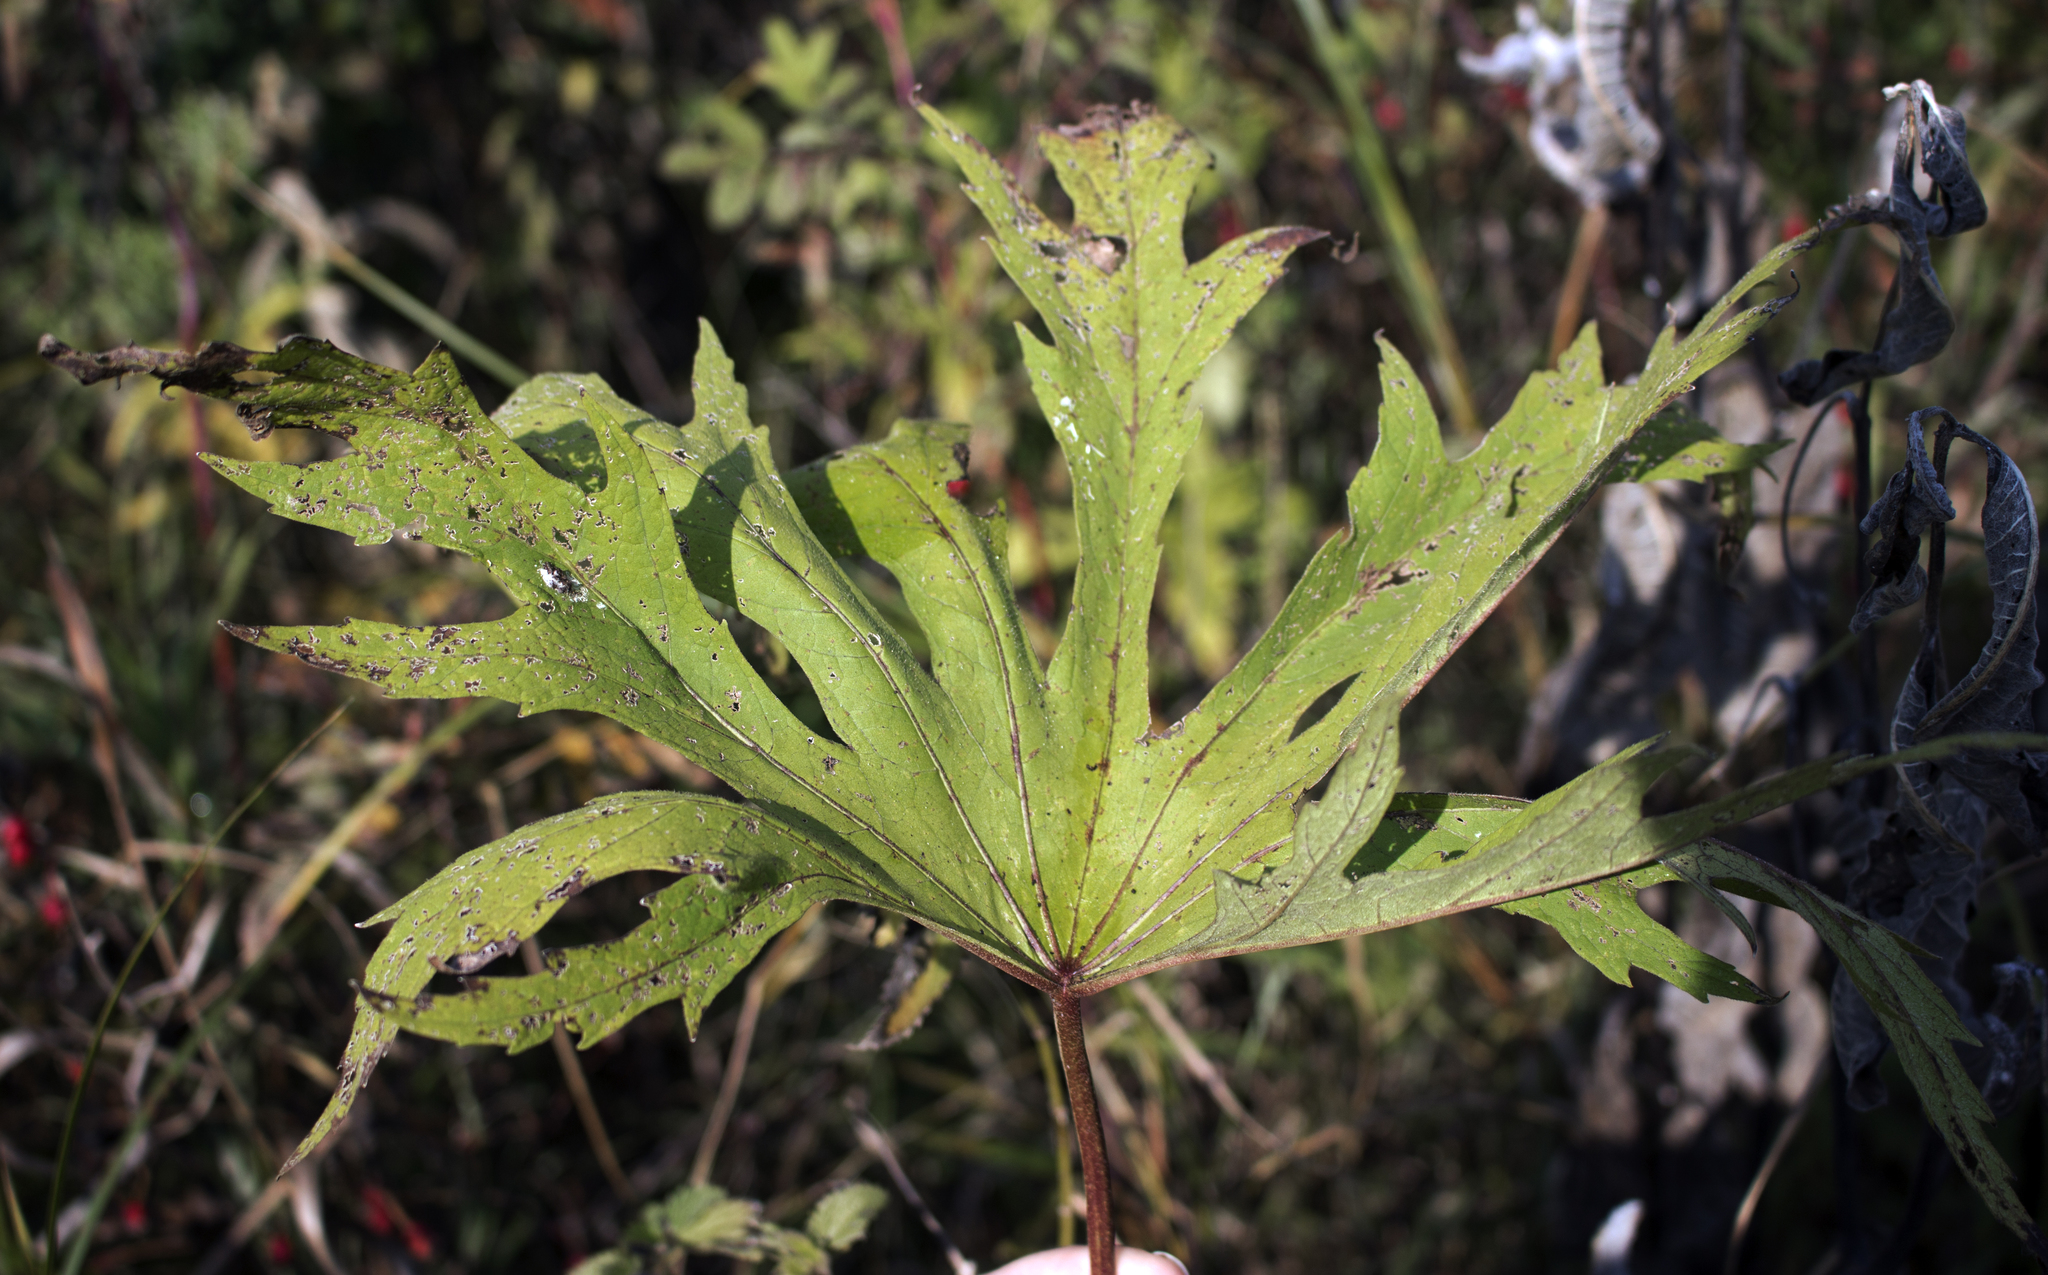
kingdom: Plantae
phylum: Tracheophyta
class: Magnoliopsida
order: Malvales
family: Malvaceae
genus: Napaea
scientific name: Napaea dioica
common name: Glade-mallow
